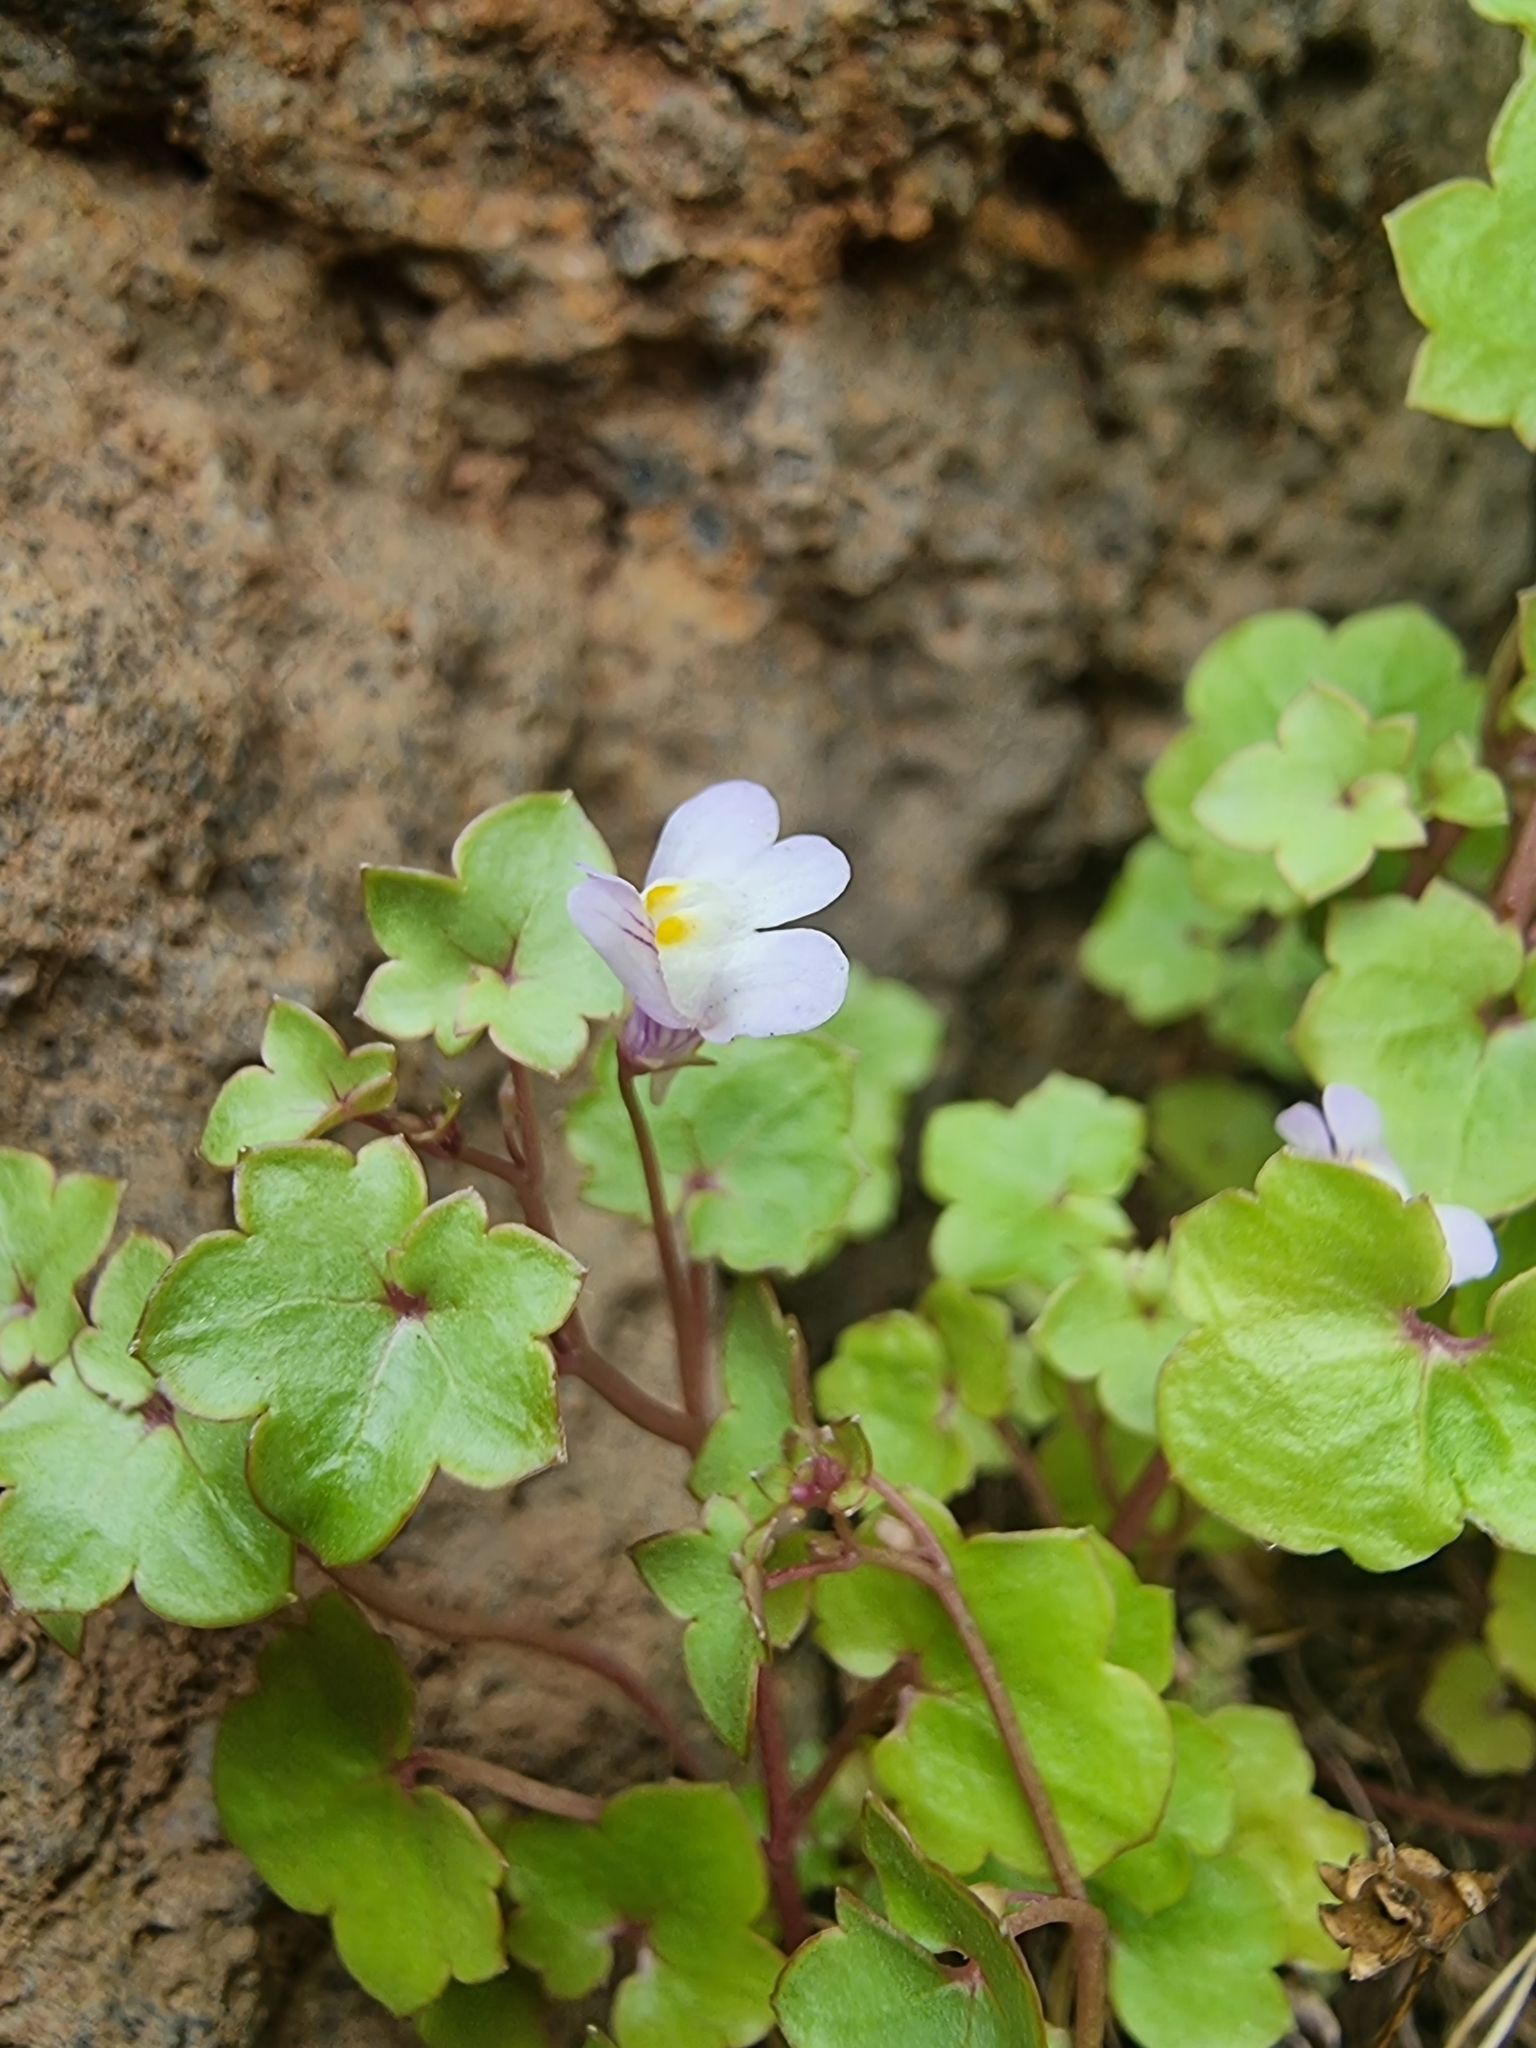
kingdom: Plantae
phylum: Tracheophyta
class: Magnoliopsida
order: Lamiales
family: Plantaginaceae
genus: Cymbalaria
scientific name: Cymbalaria muralis
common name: Ivy-leaved toadflax
